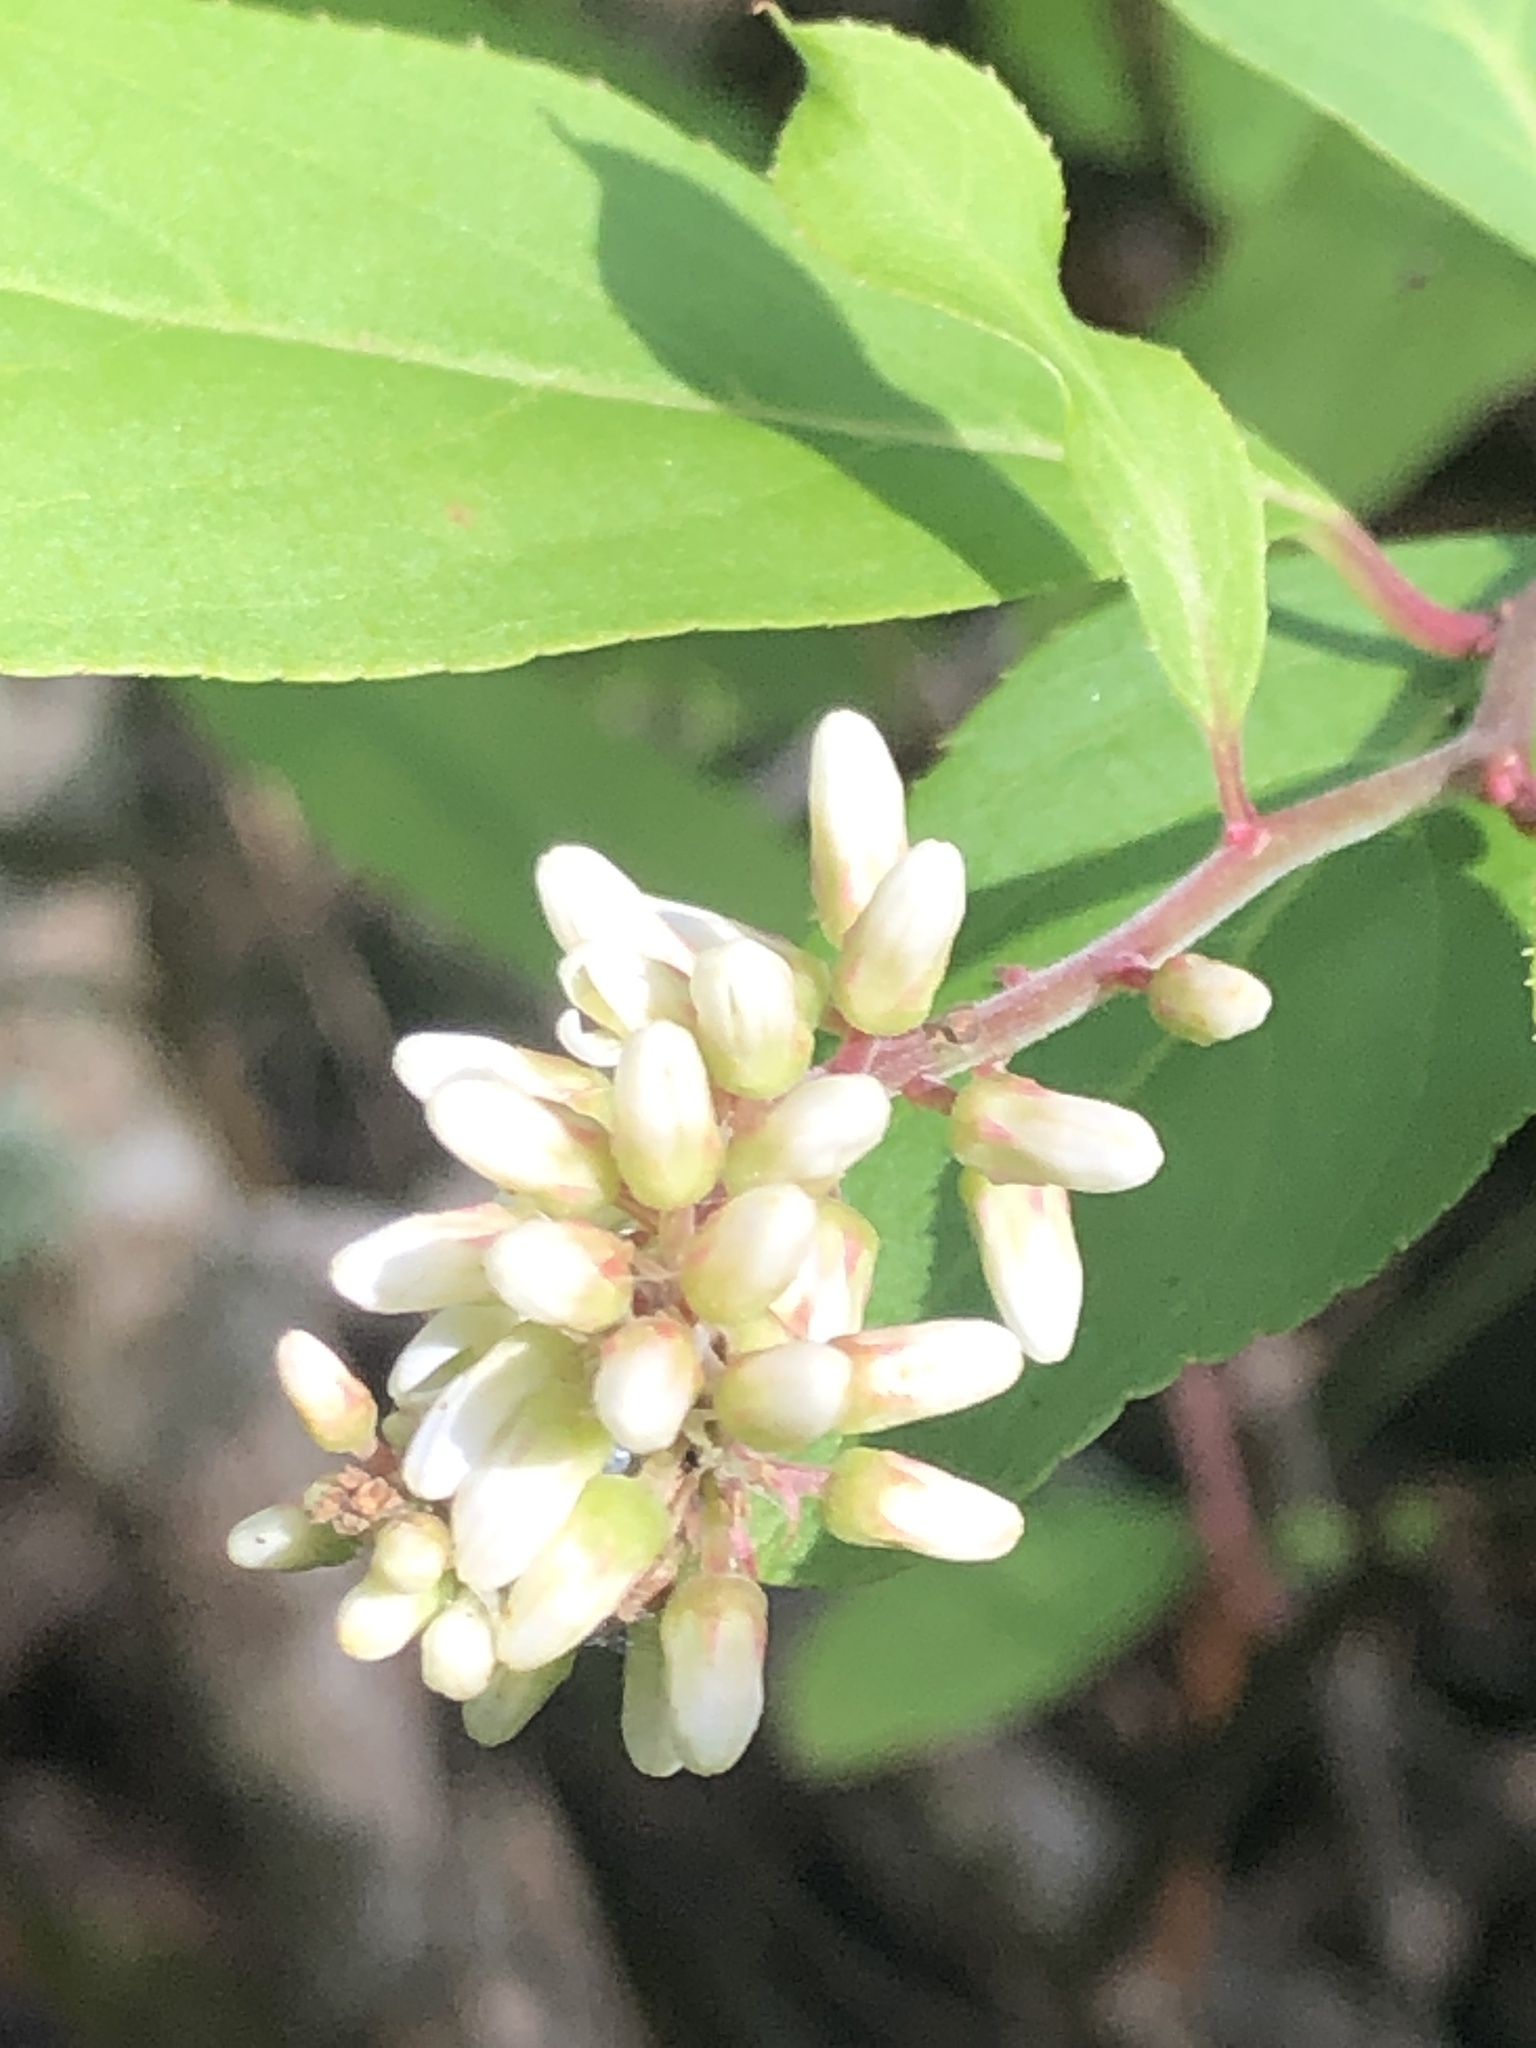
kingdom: Plantae
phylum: Tracheophyta
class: Magnoliopsida
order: Saxifragales
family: Iteaceae
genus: Itea
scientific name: Itea virginica
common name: Sweetspire
